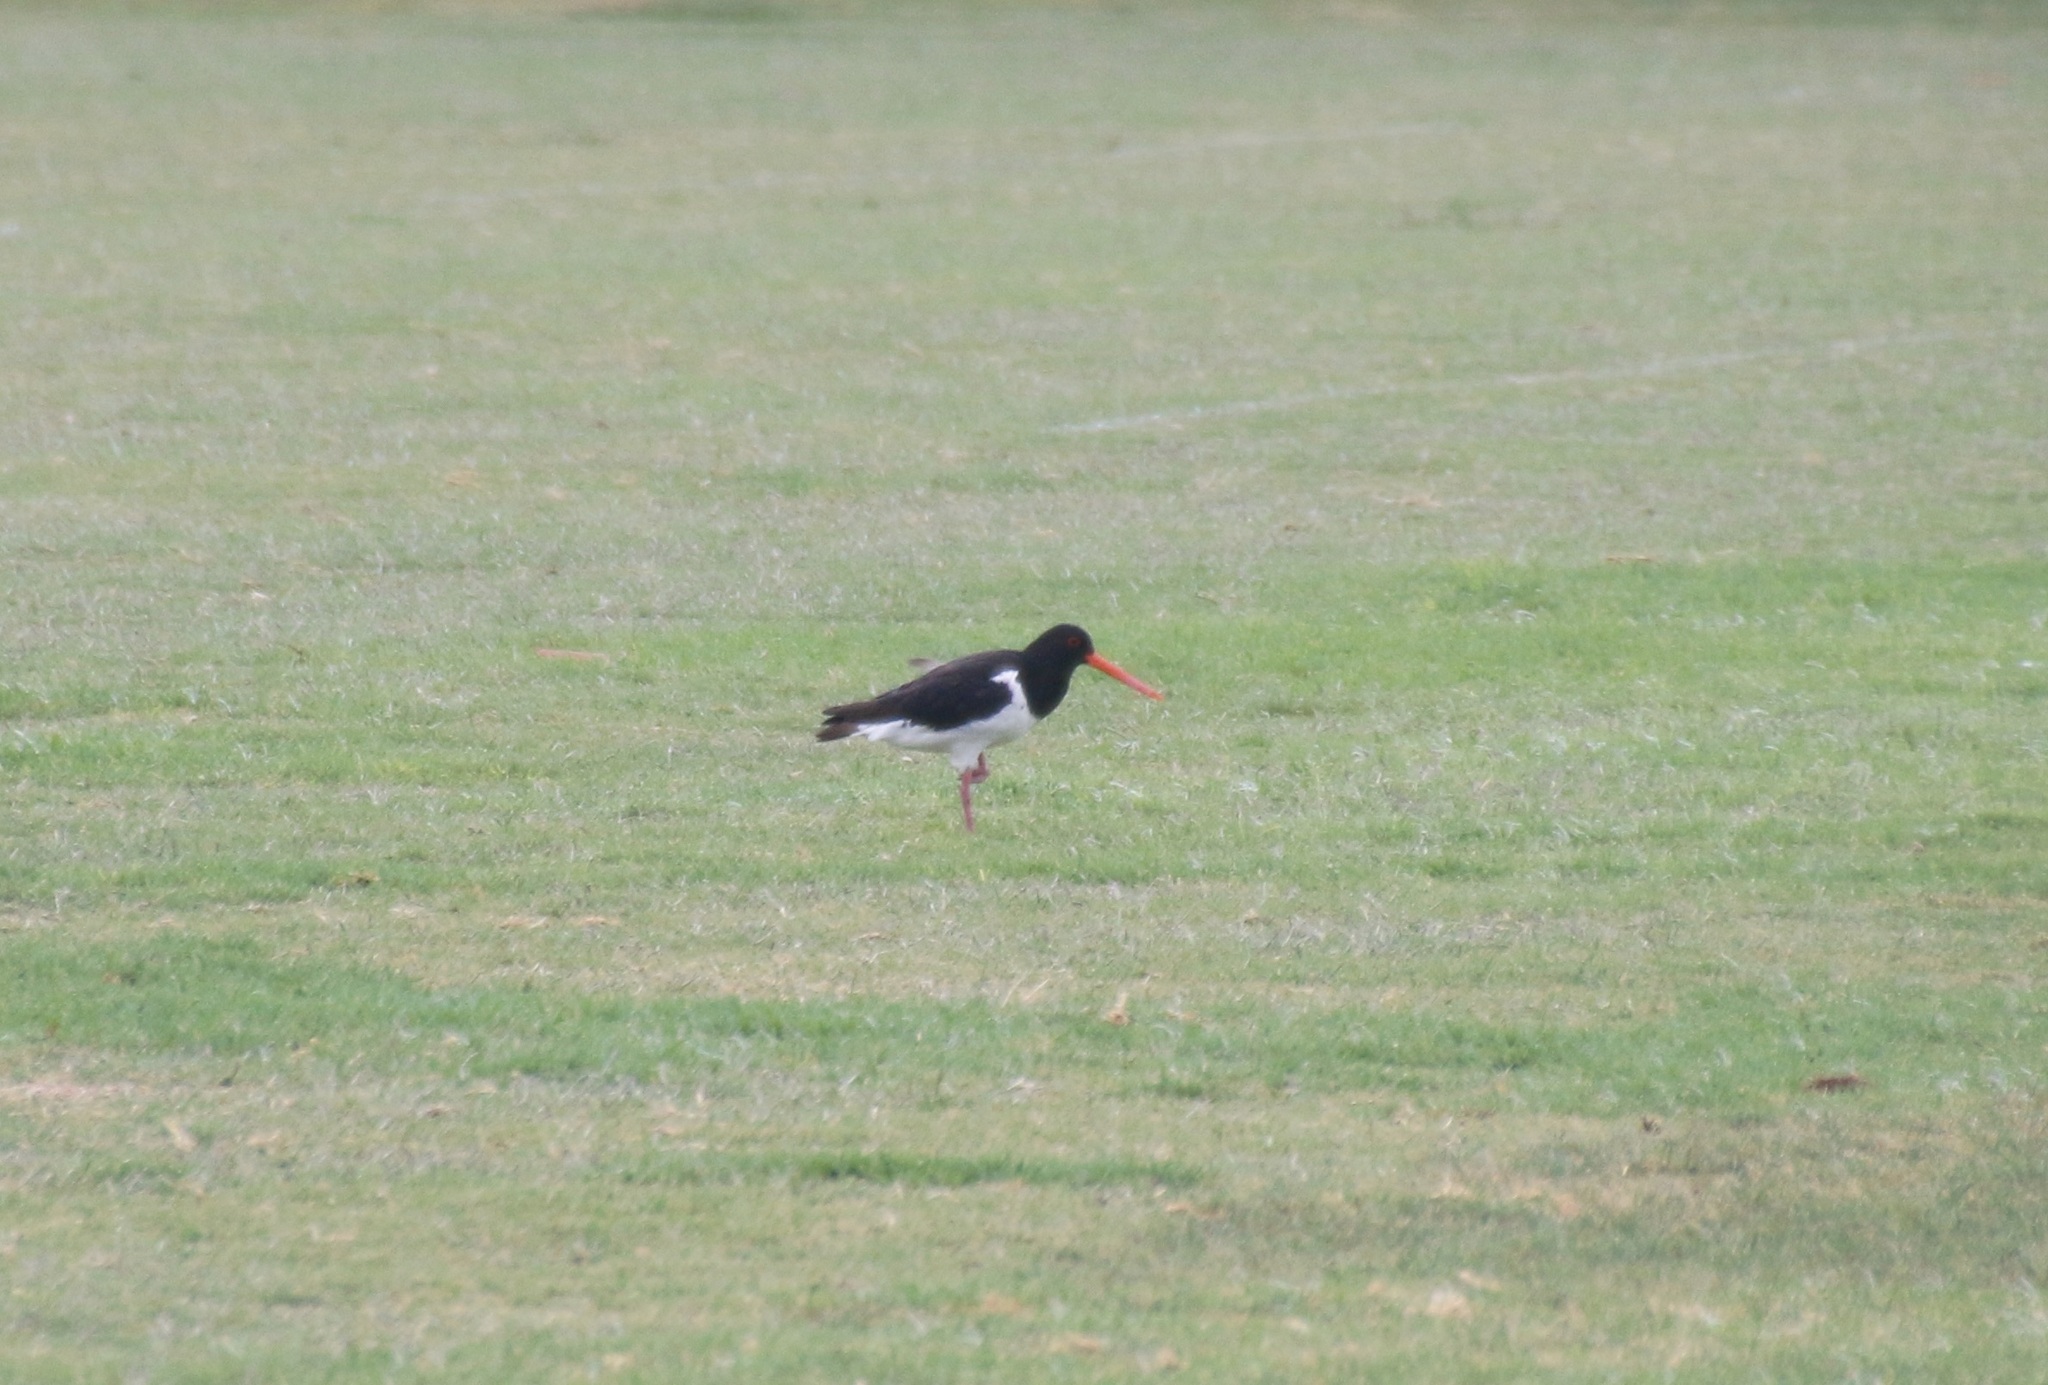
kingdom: Animalia
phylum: Chordata
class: Aves
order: Charadriiformes
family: Haematopodidae
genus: Haematopus
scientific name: Haematopus finschi
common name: South island oystercatcher
